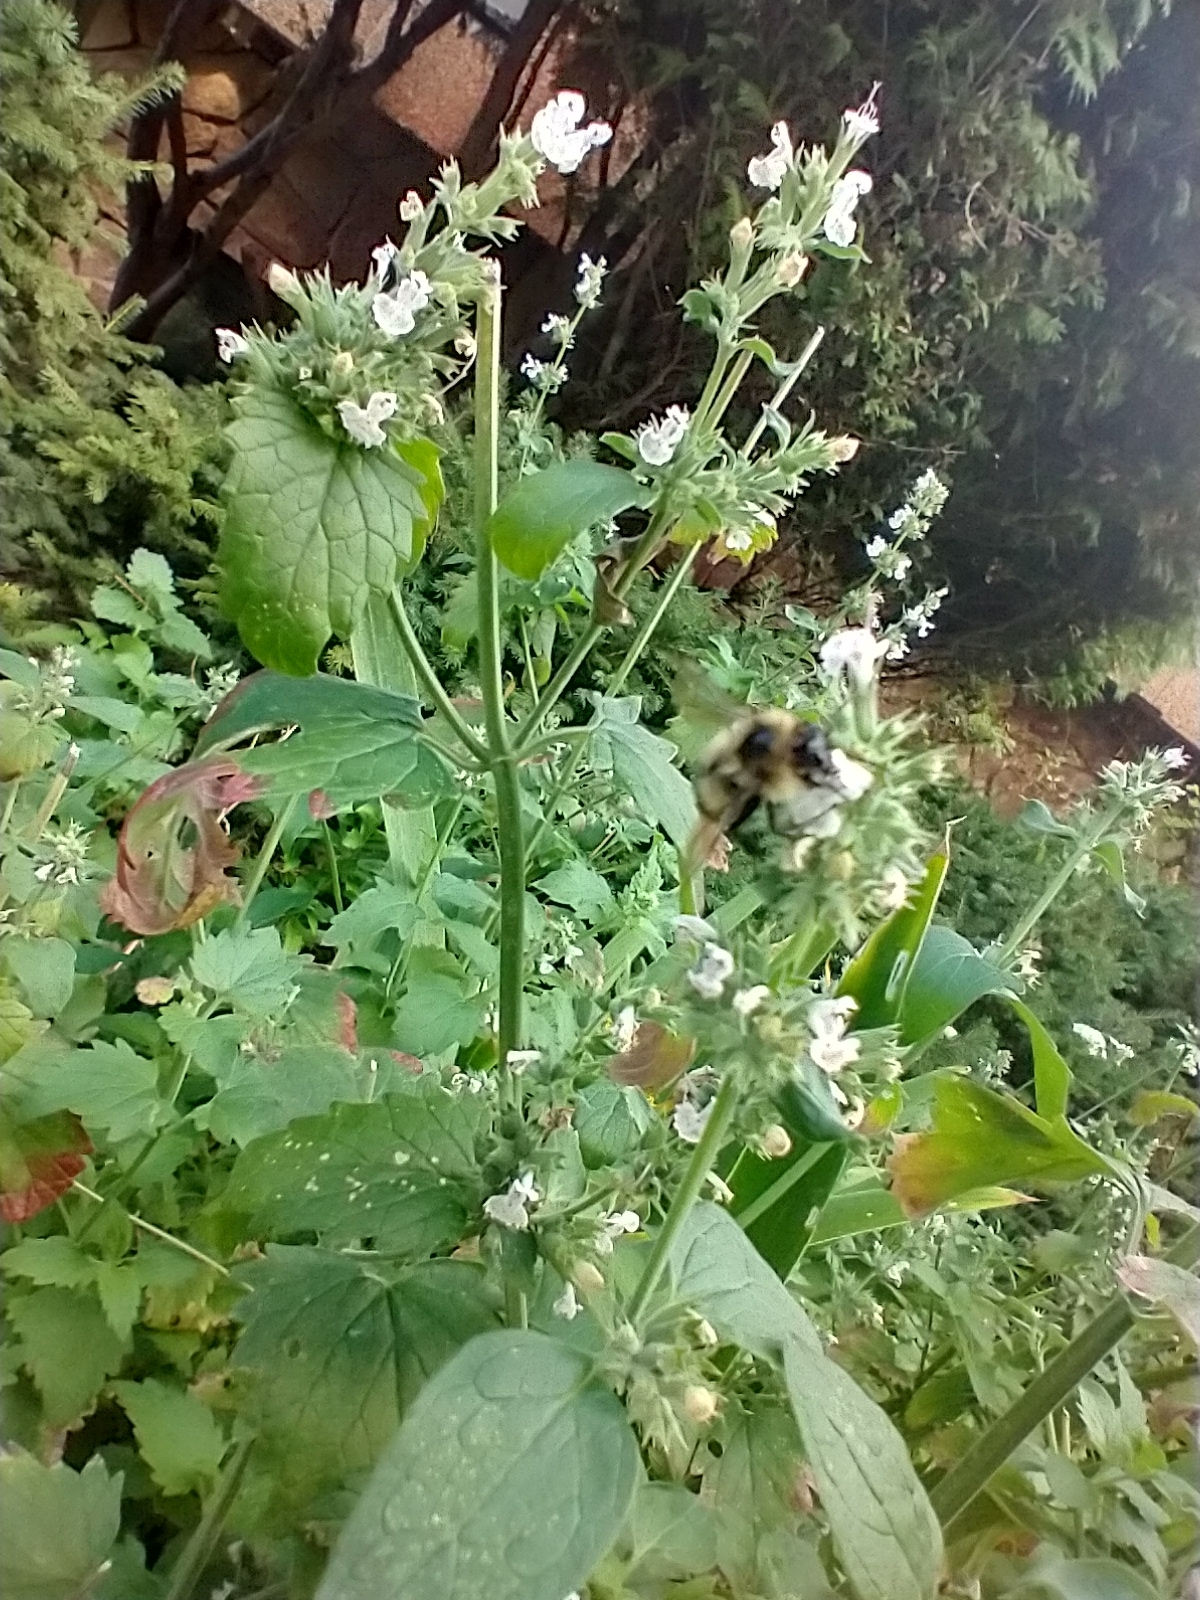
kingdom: Animalia
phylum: Arthropoda
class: Insecta
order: Hymenoptera
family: Apidae
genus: Bombus
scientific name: Bombus vagans
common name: Half-black bumble bee
